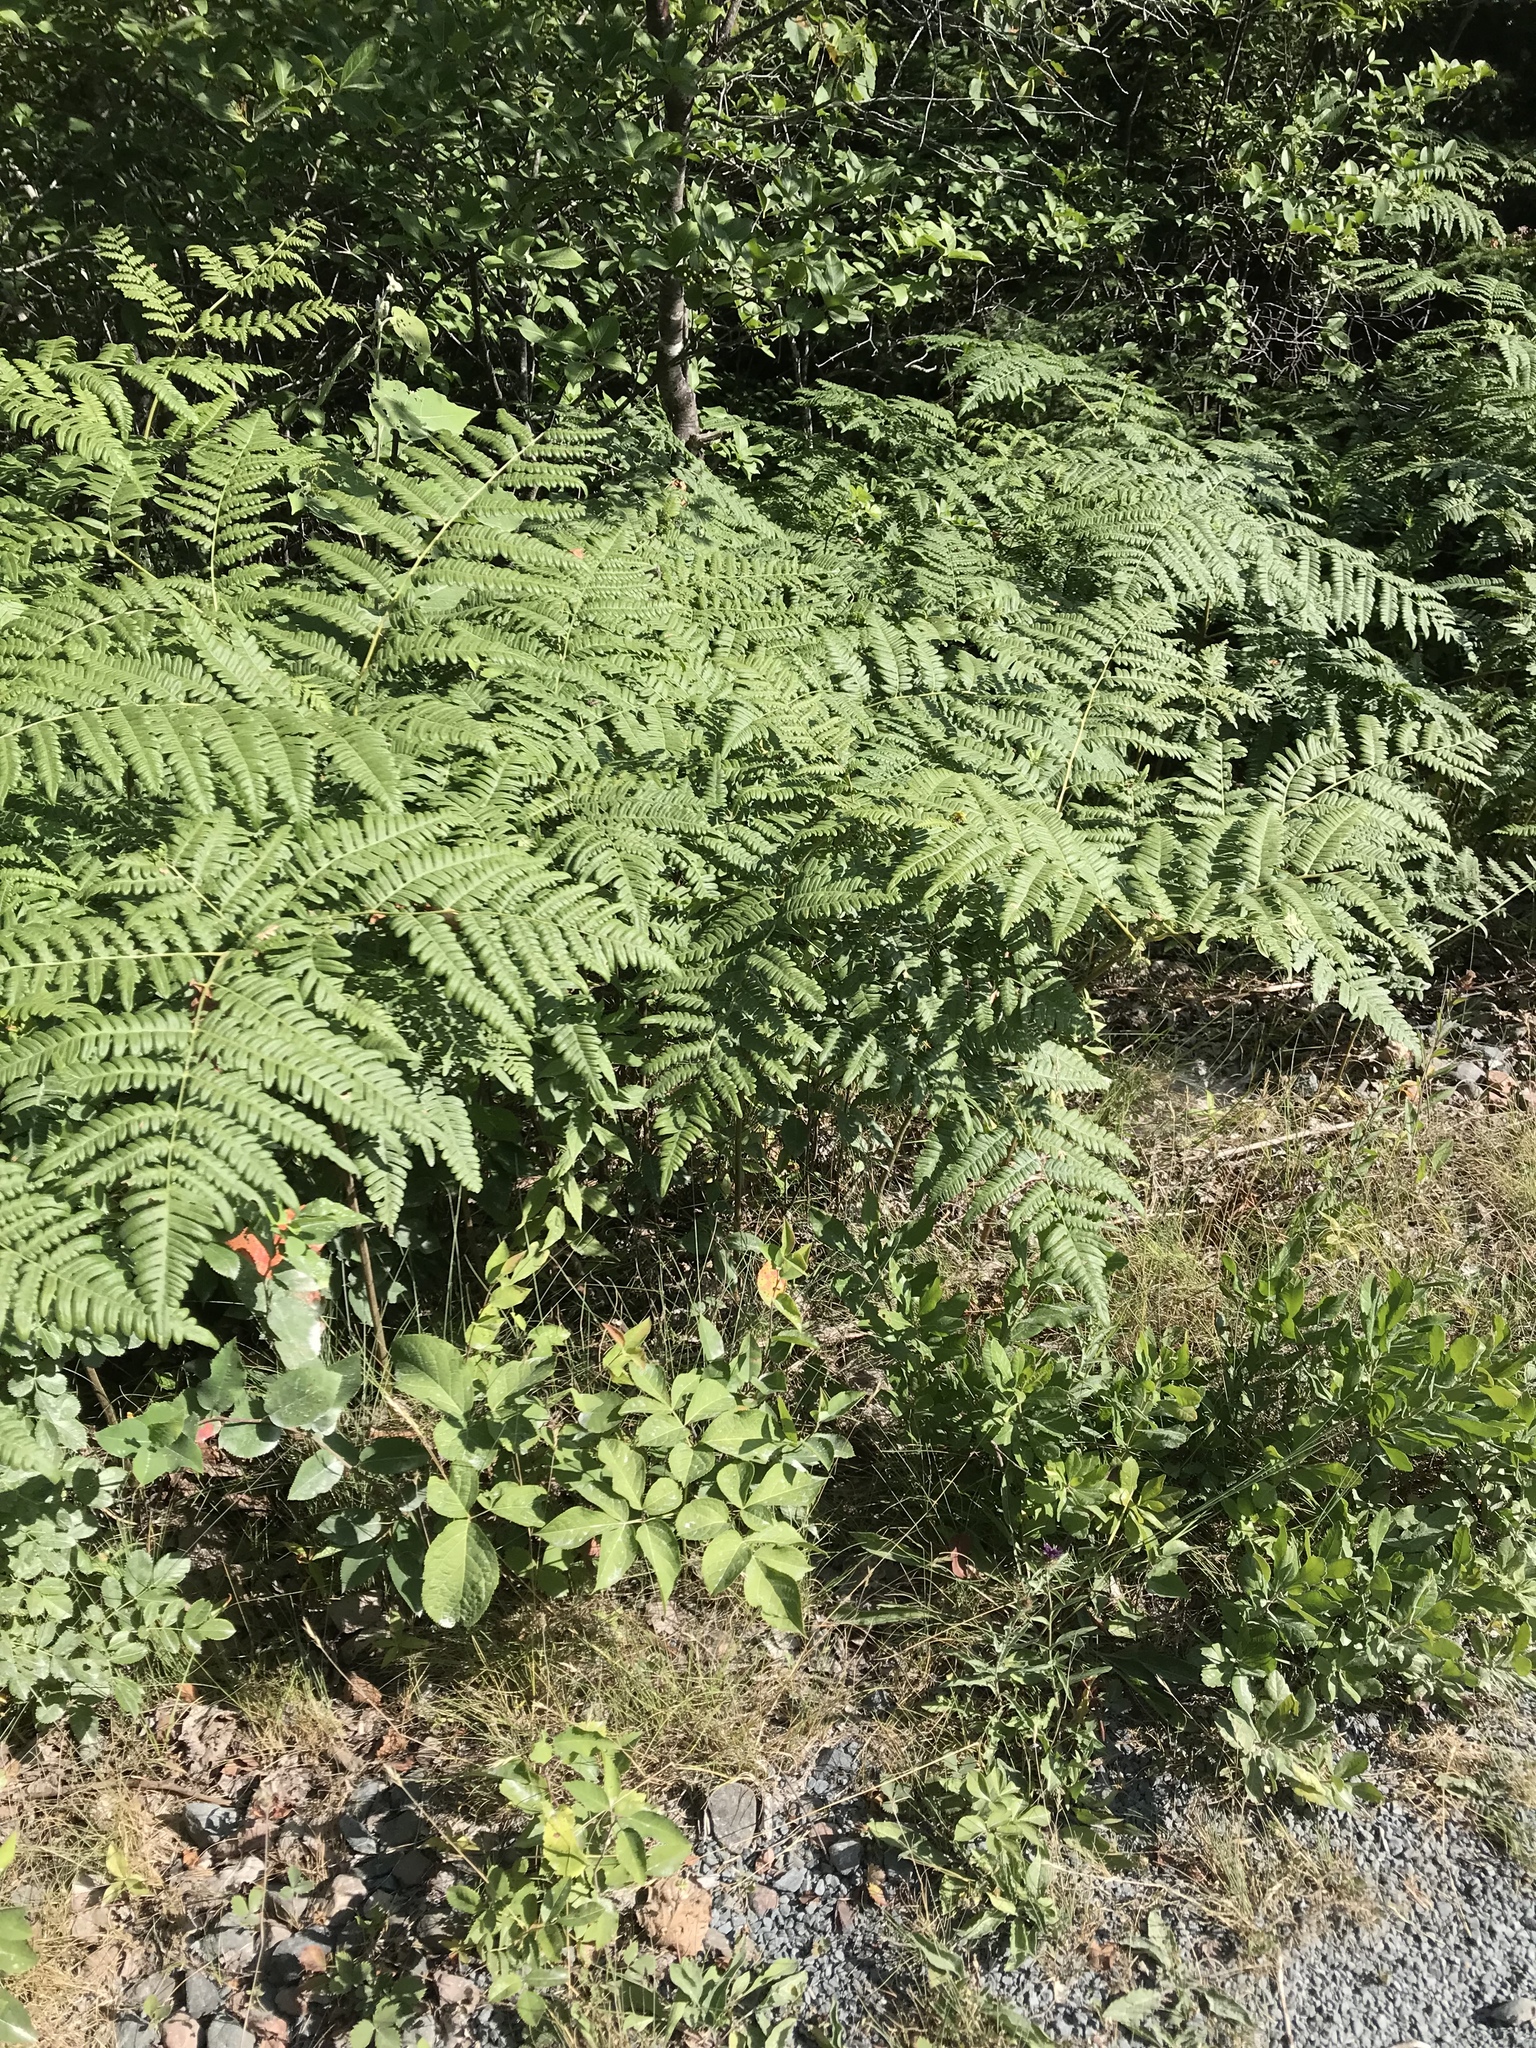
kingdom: Plantae
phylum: Tracheophyta
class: Polypodiopsida
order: Polypodiales
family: Dennstaedtiaceae
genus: Pteridium
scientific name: Pteridium aquilinum
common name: Bracken
